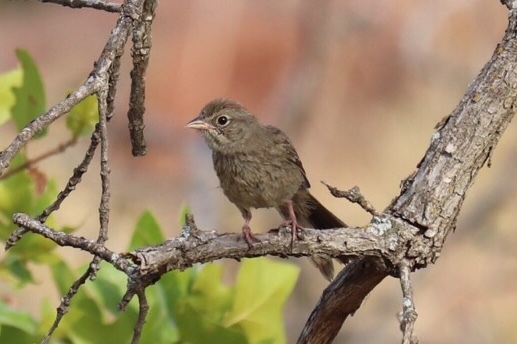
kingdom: Animalia
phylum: Chordata
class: Aves
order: Passeriformes
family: Passerellidae
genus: Aimophila
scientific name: Aimophila ruficeps
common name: Rufous-crowned sparrow
